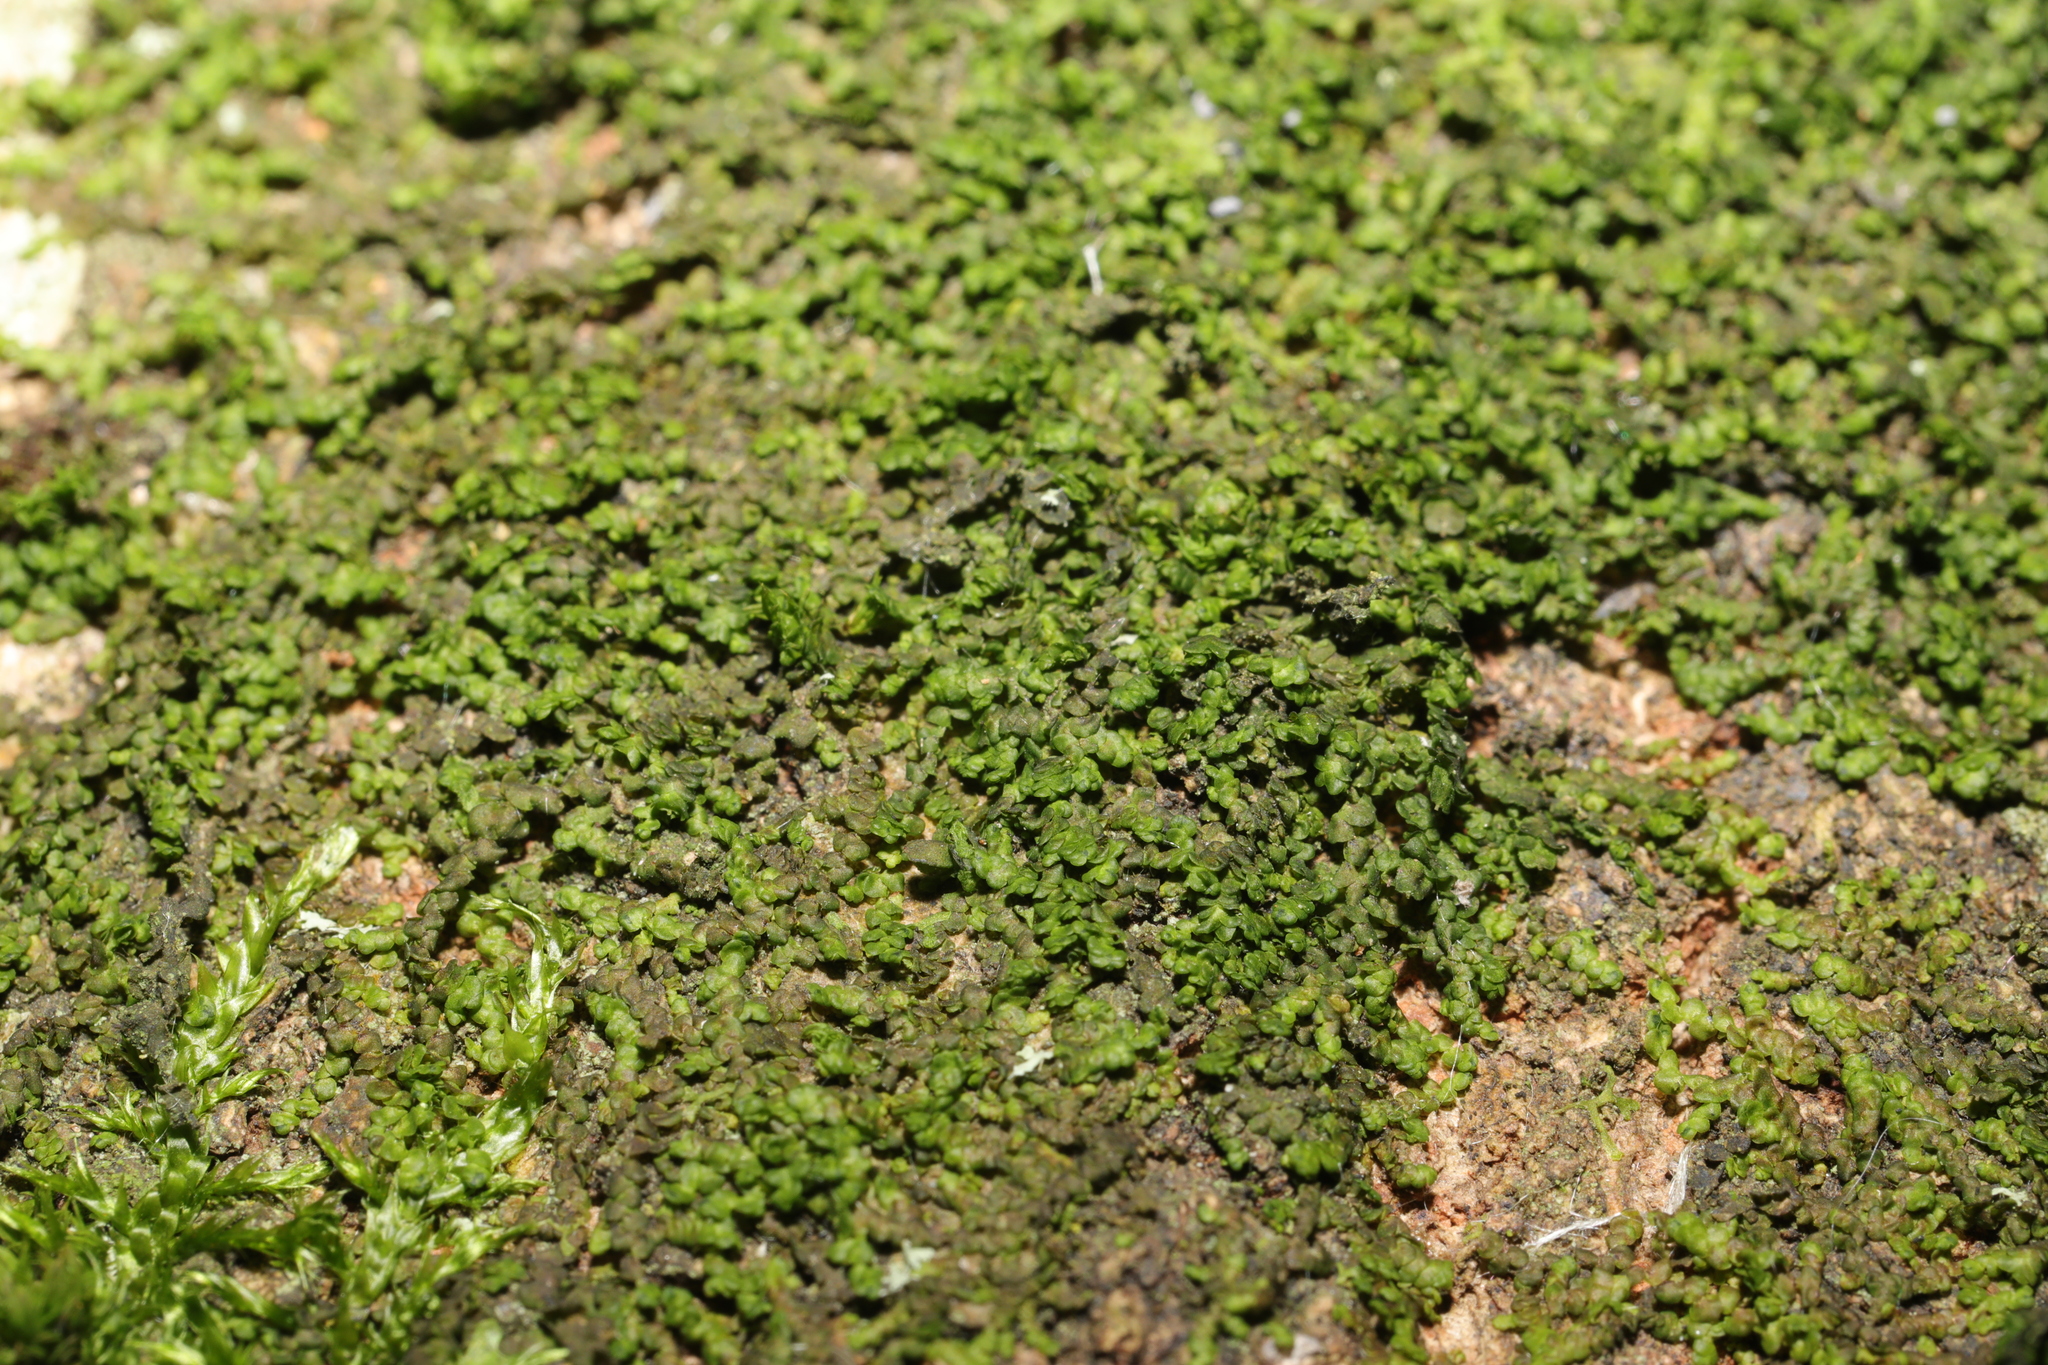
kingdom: Plantae
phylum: Marchantiophyta
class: Jungermanniopsida
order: Porellales
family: Frullaniaceae
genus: Frullania
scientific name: Frullania dilatata
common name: Dilated scalewort
